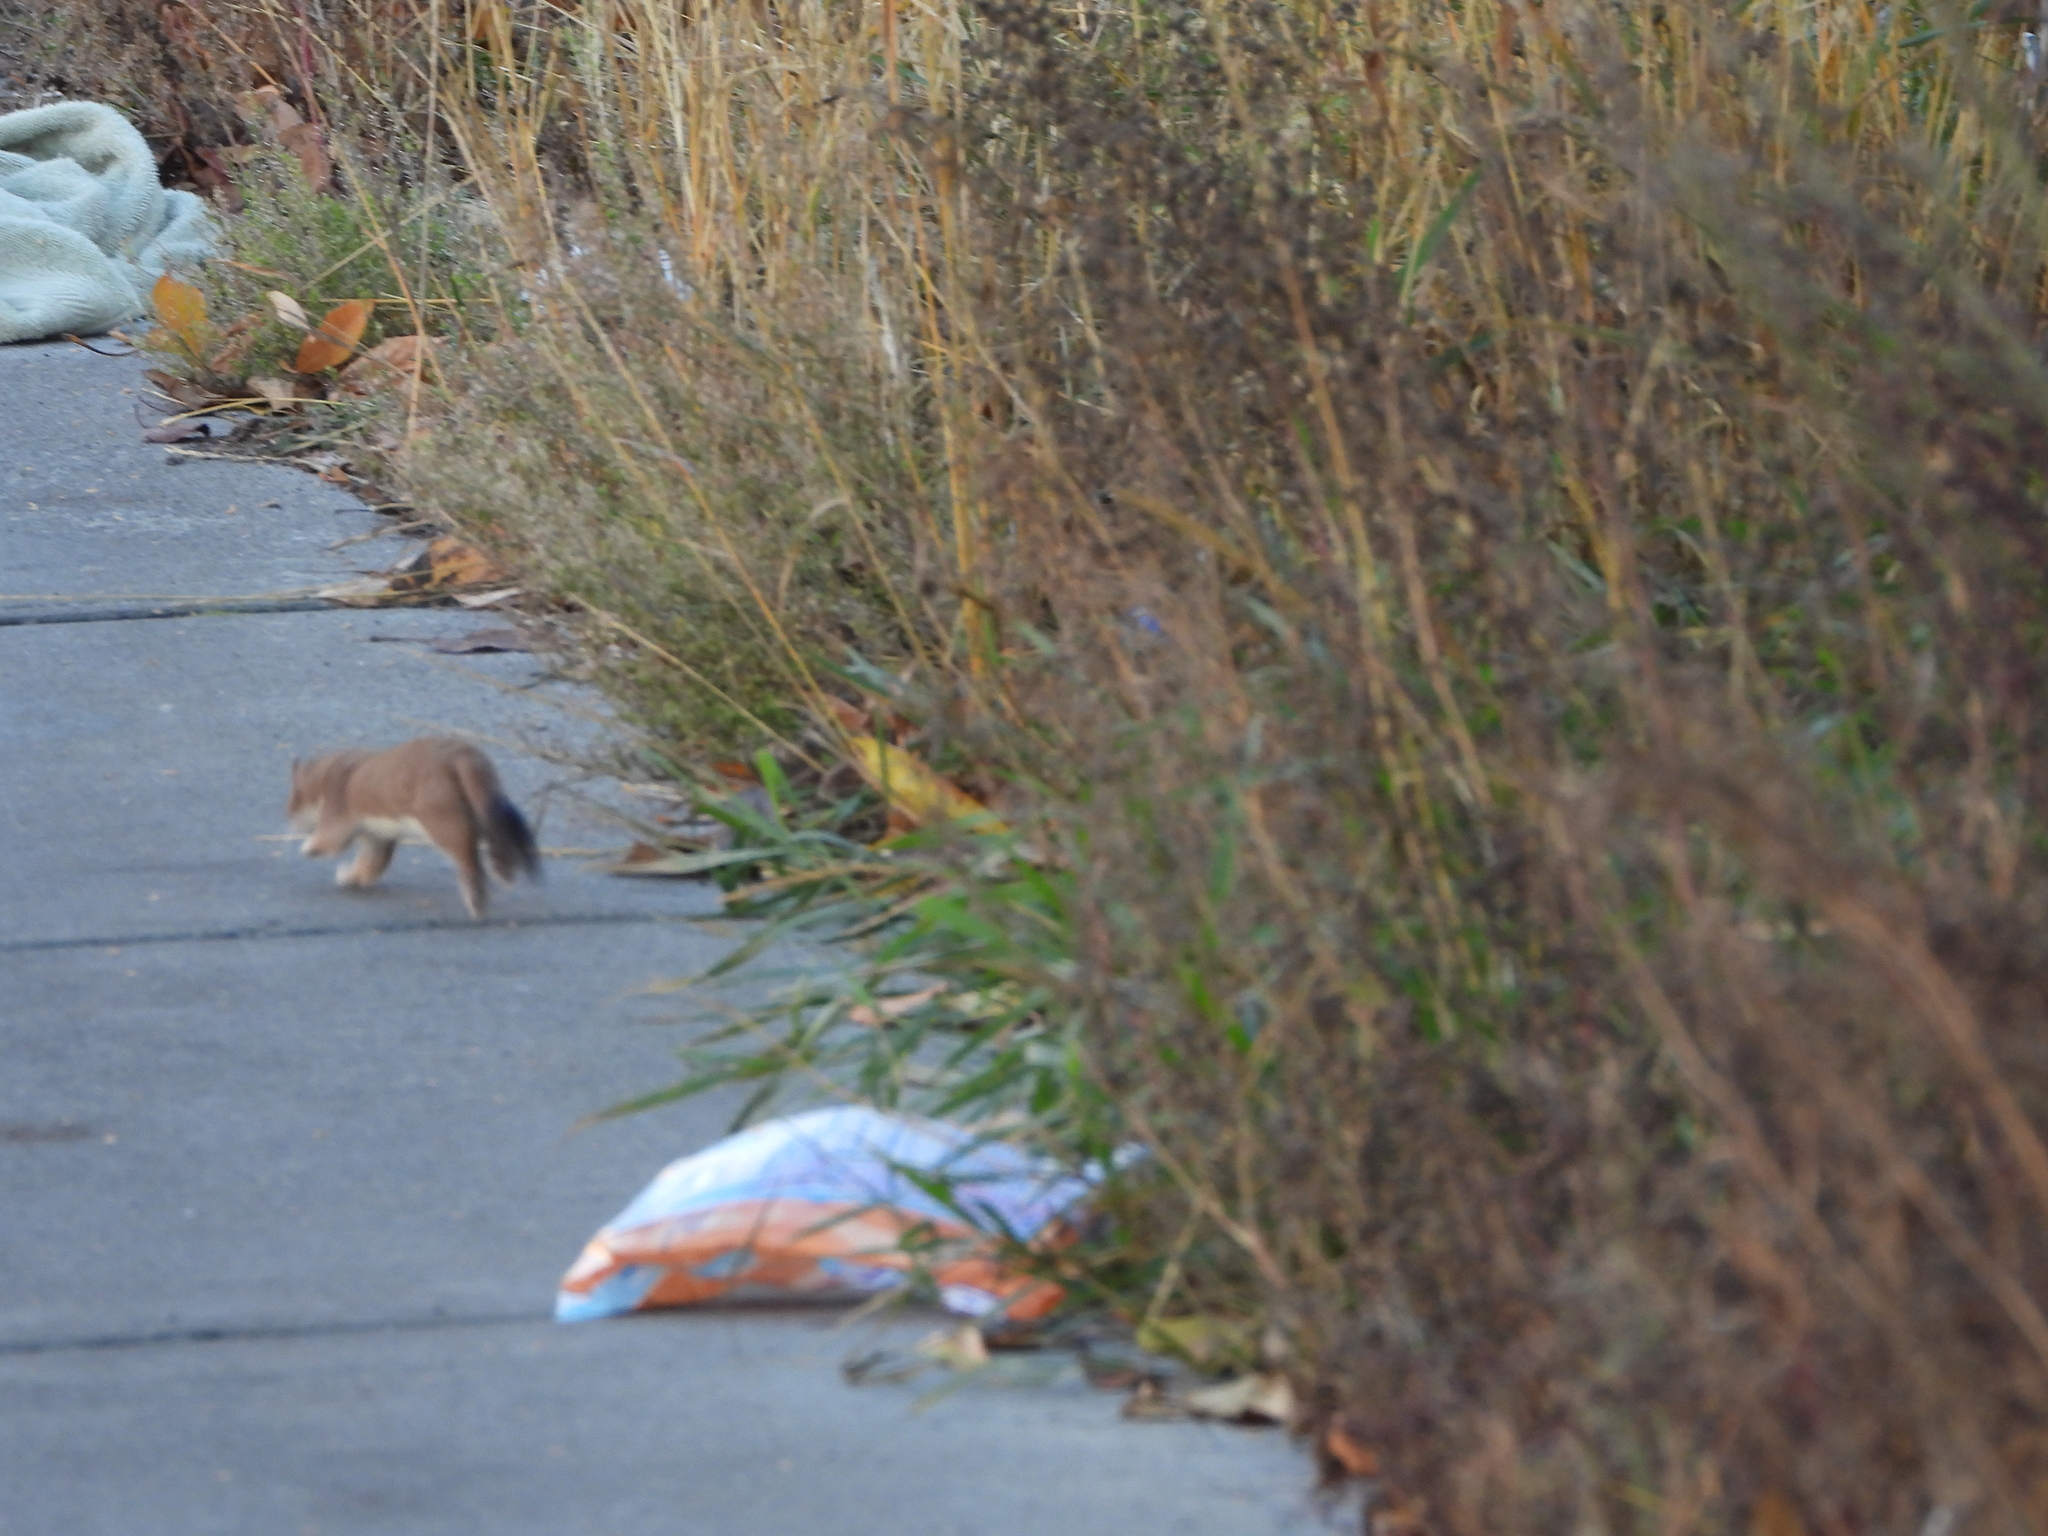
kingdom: Animalia
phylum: Chordata
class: Mammalia
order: Carnivora
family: Mustelidae
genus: Mustela
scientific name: Mustela erminea
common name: Stoat
